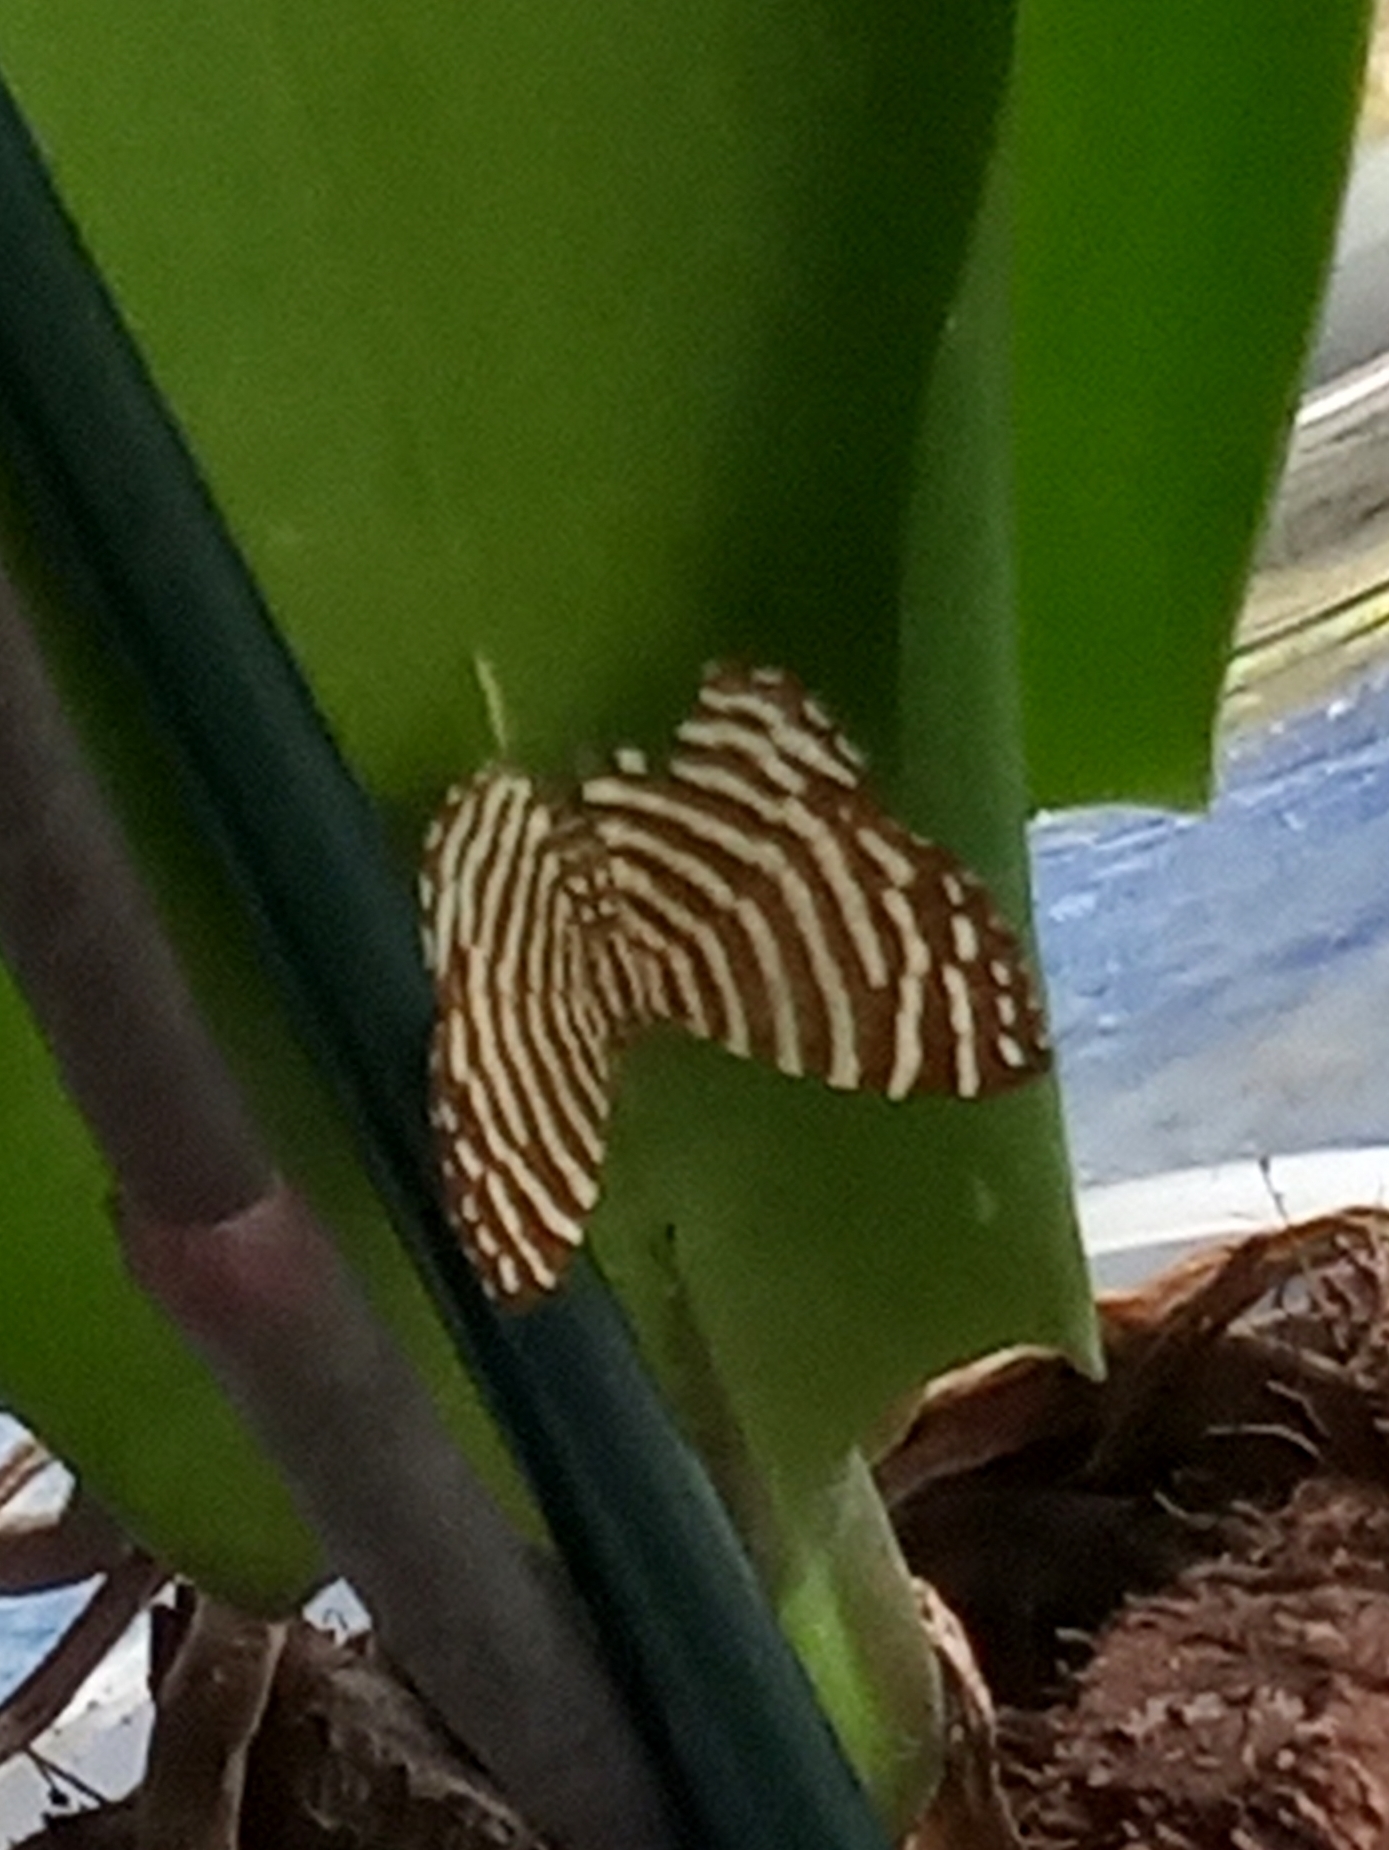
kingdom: Animalia
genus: Hyphilaria
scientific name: Hyphilaria thasus
